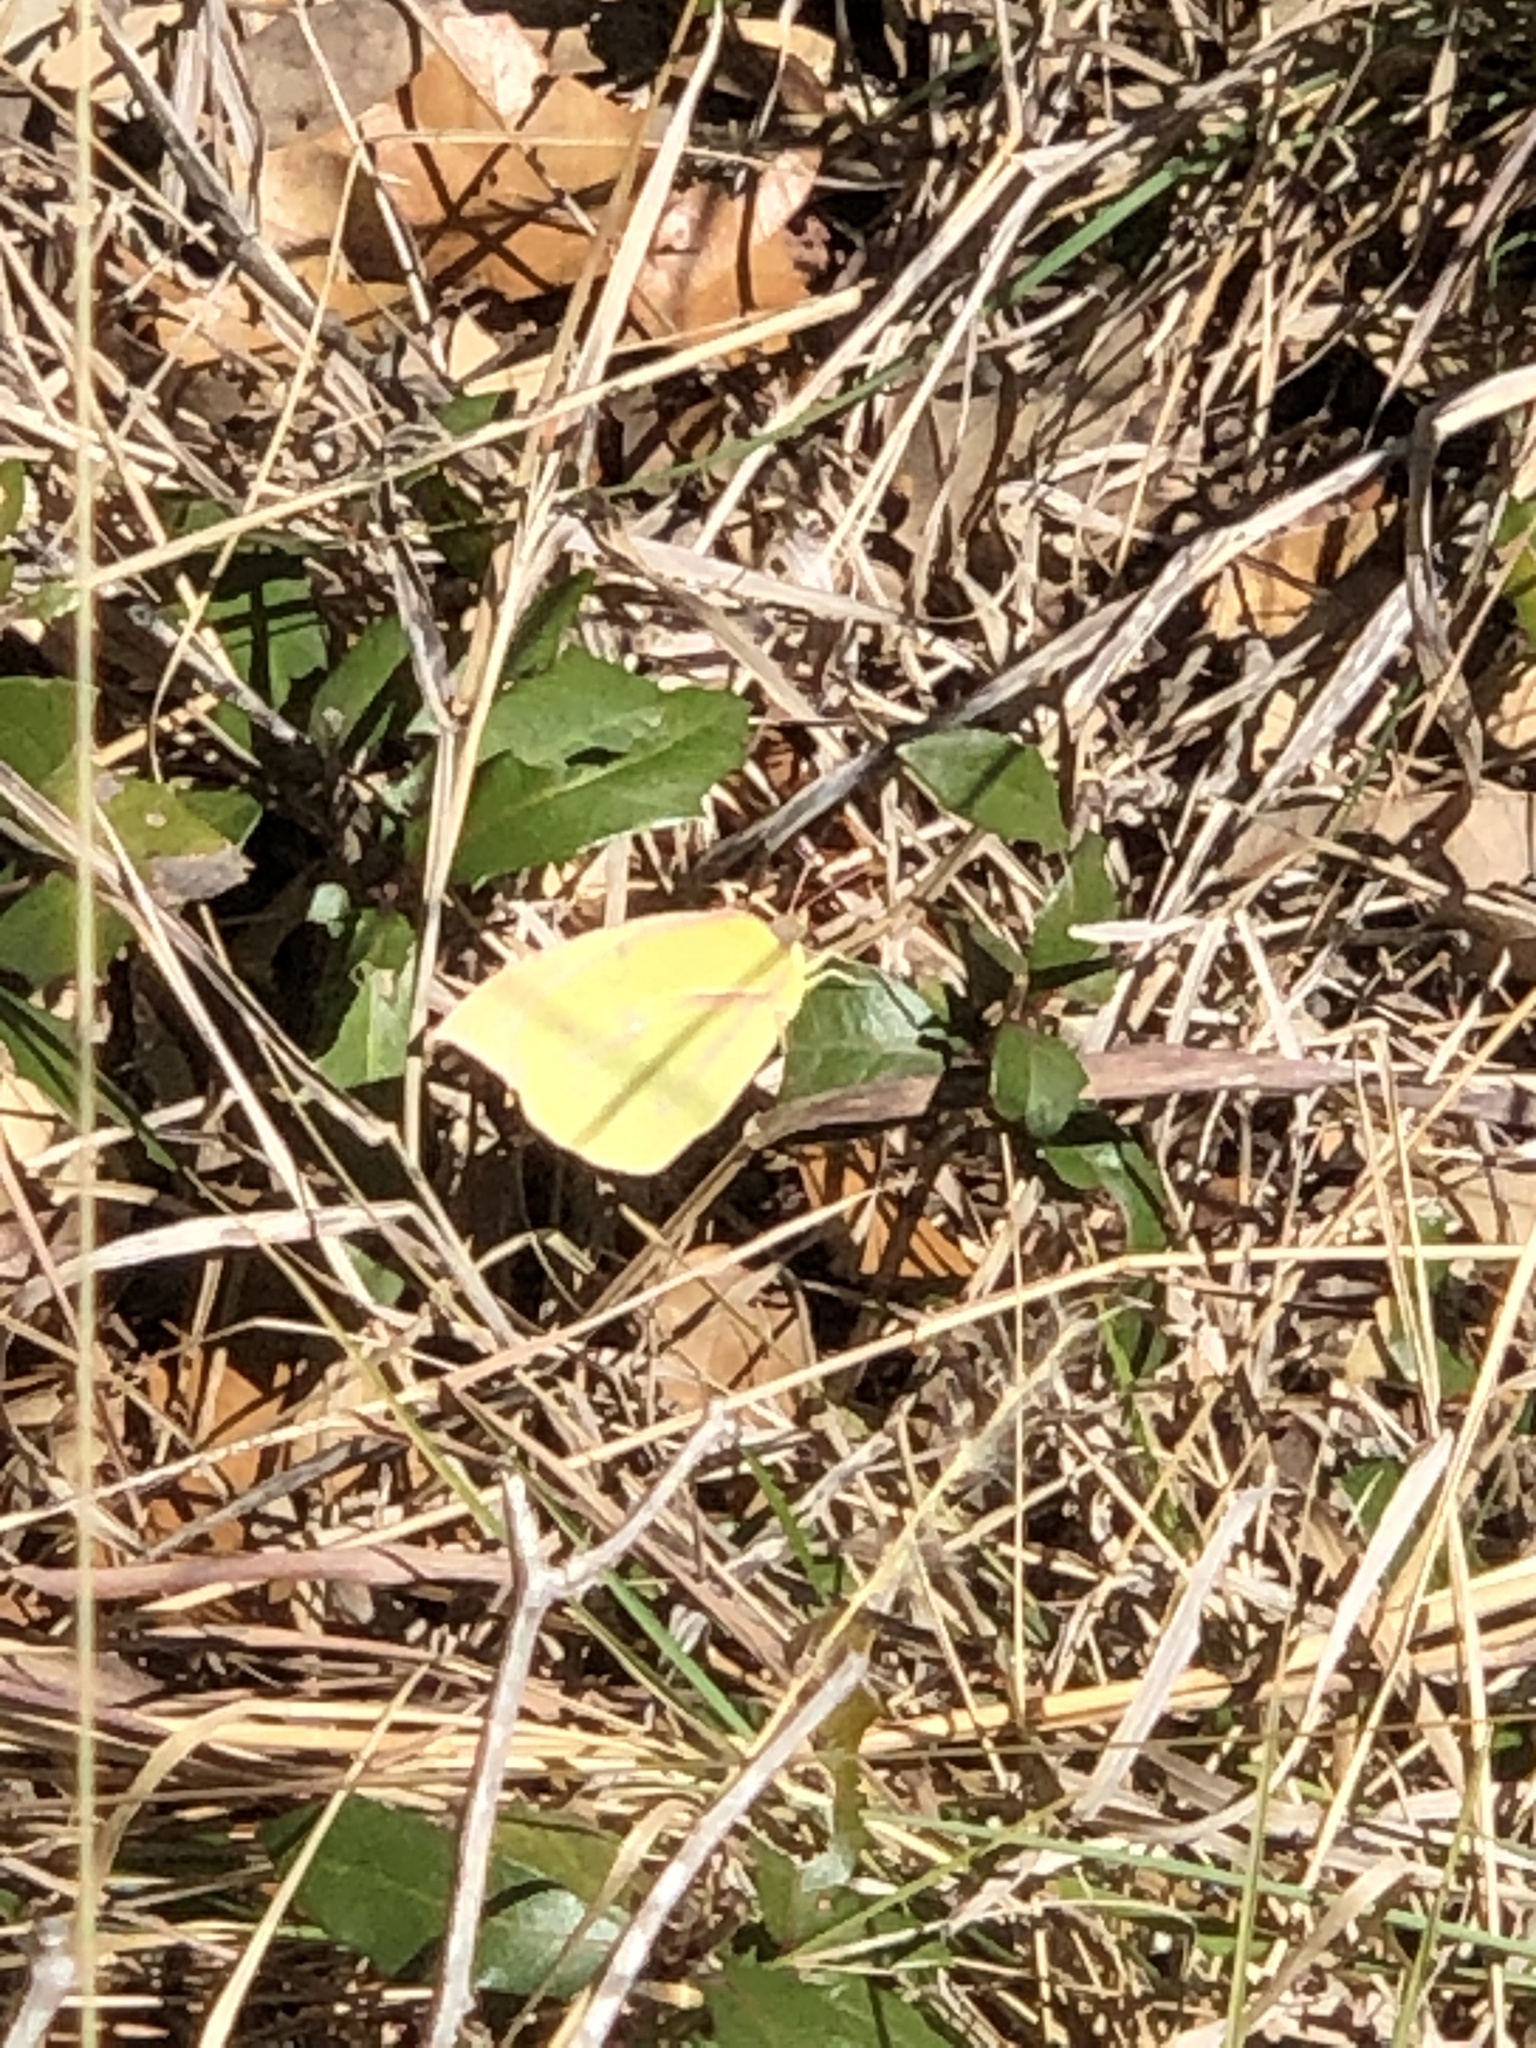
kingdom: Animalia
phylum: Arthropoda
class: Insecta
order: Lepidoptera
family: Pieridae
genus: Zerene
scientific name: Zerene cesonia
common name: Southern dogface
